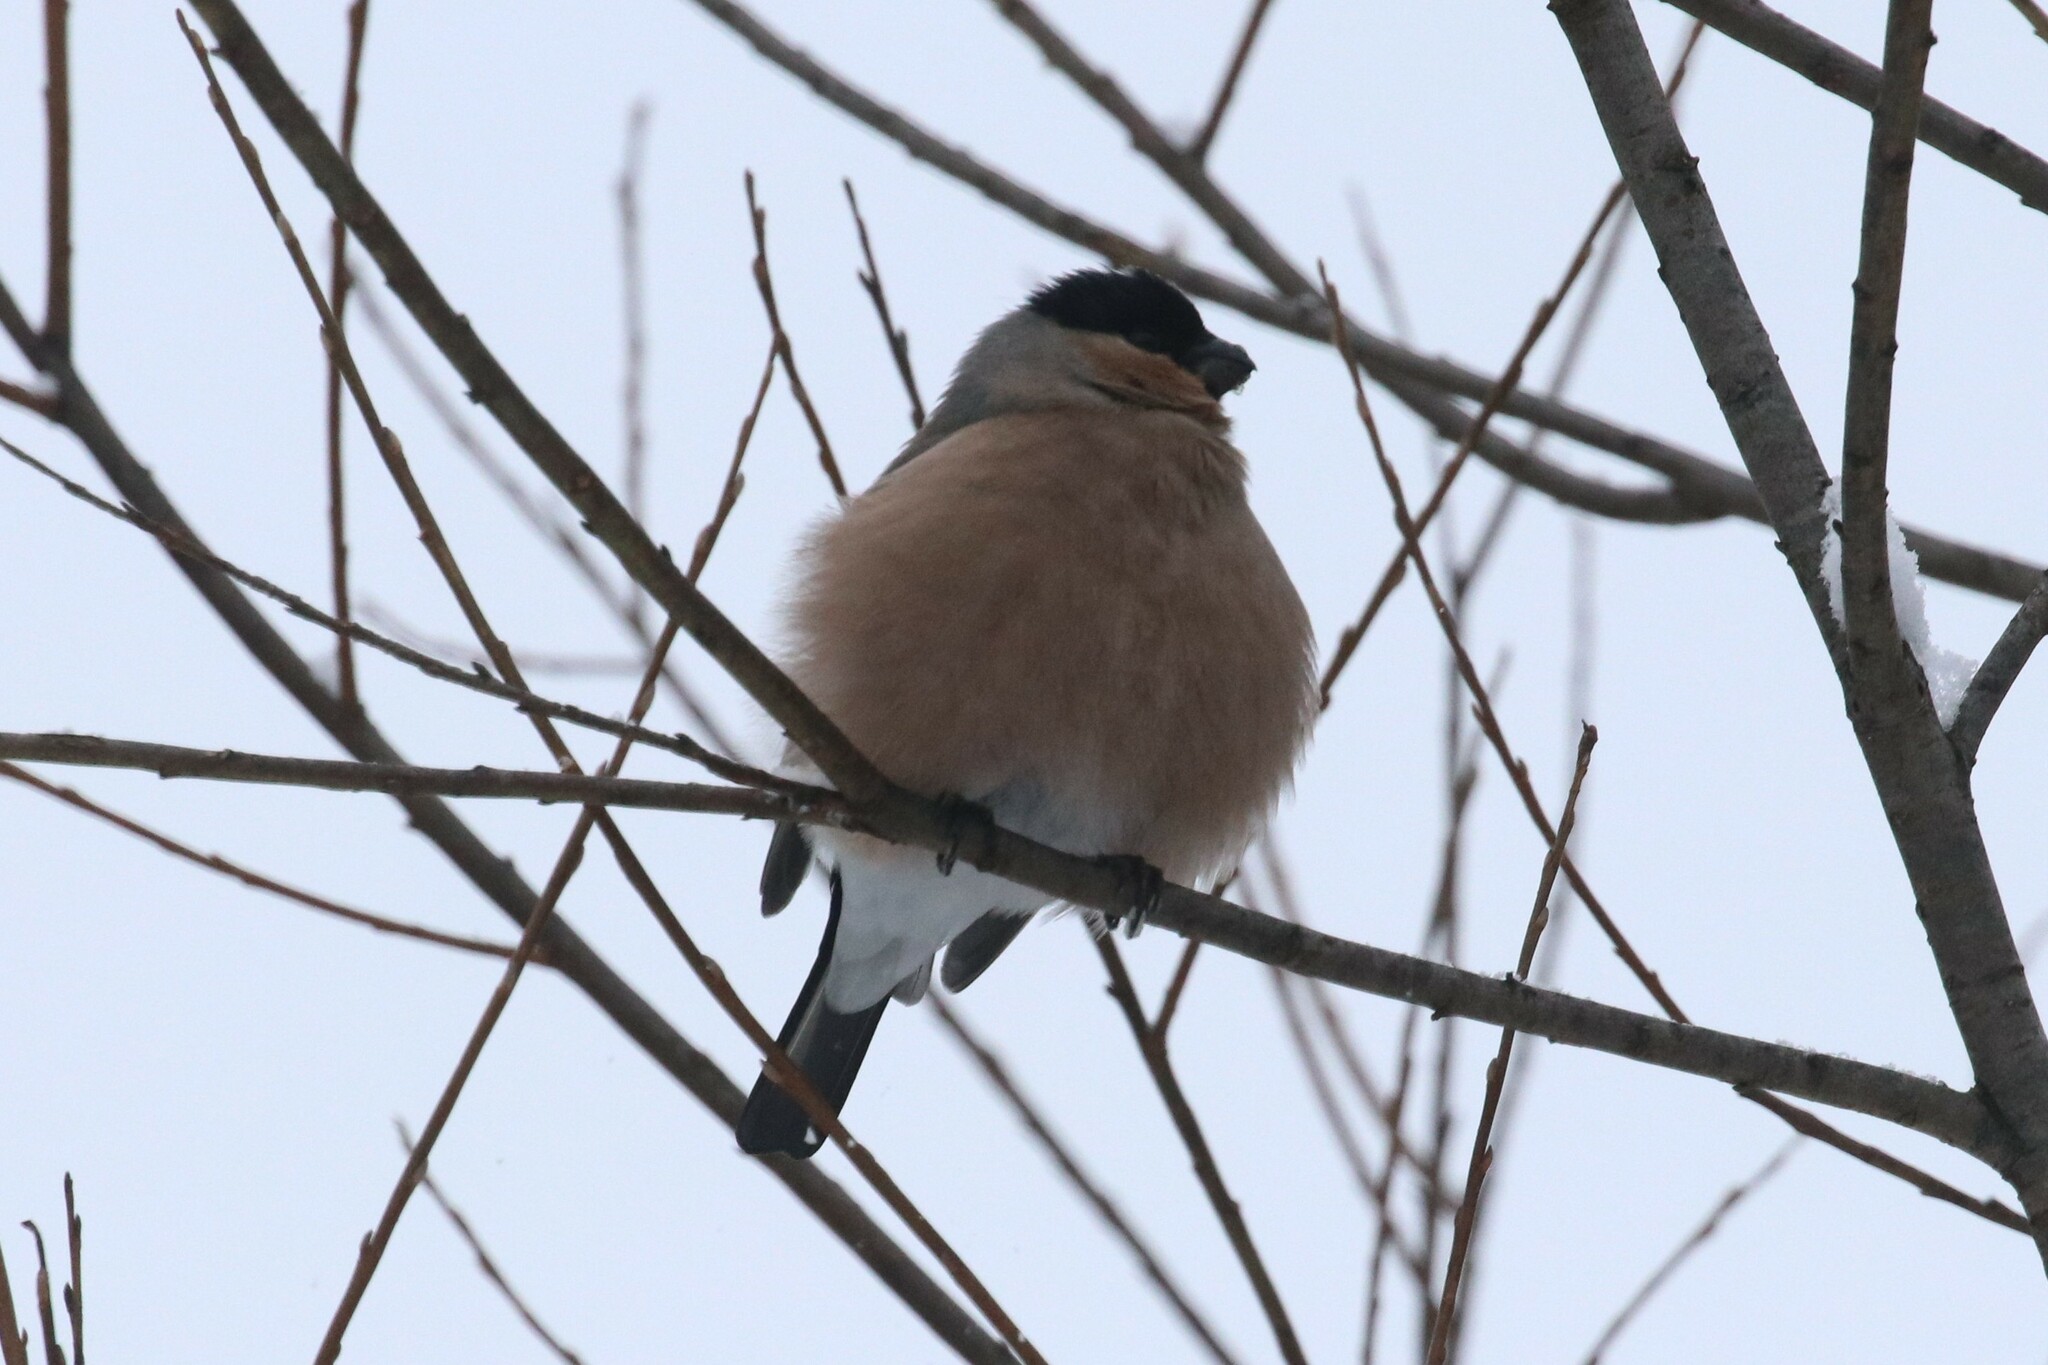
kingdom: Animalia
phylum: Chordata
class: Aves
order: Passeriformes
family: Fringillidae
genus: Pyrrhula
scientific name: Pyrrhula pyrrhula
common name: Eurasian bullfinch
